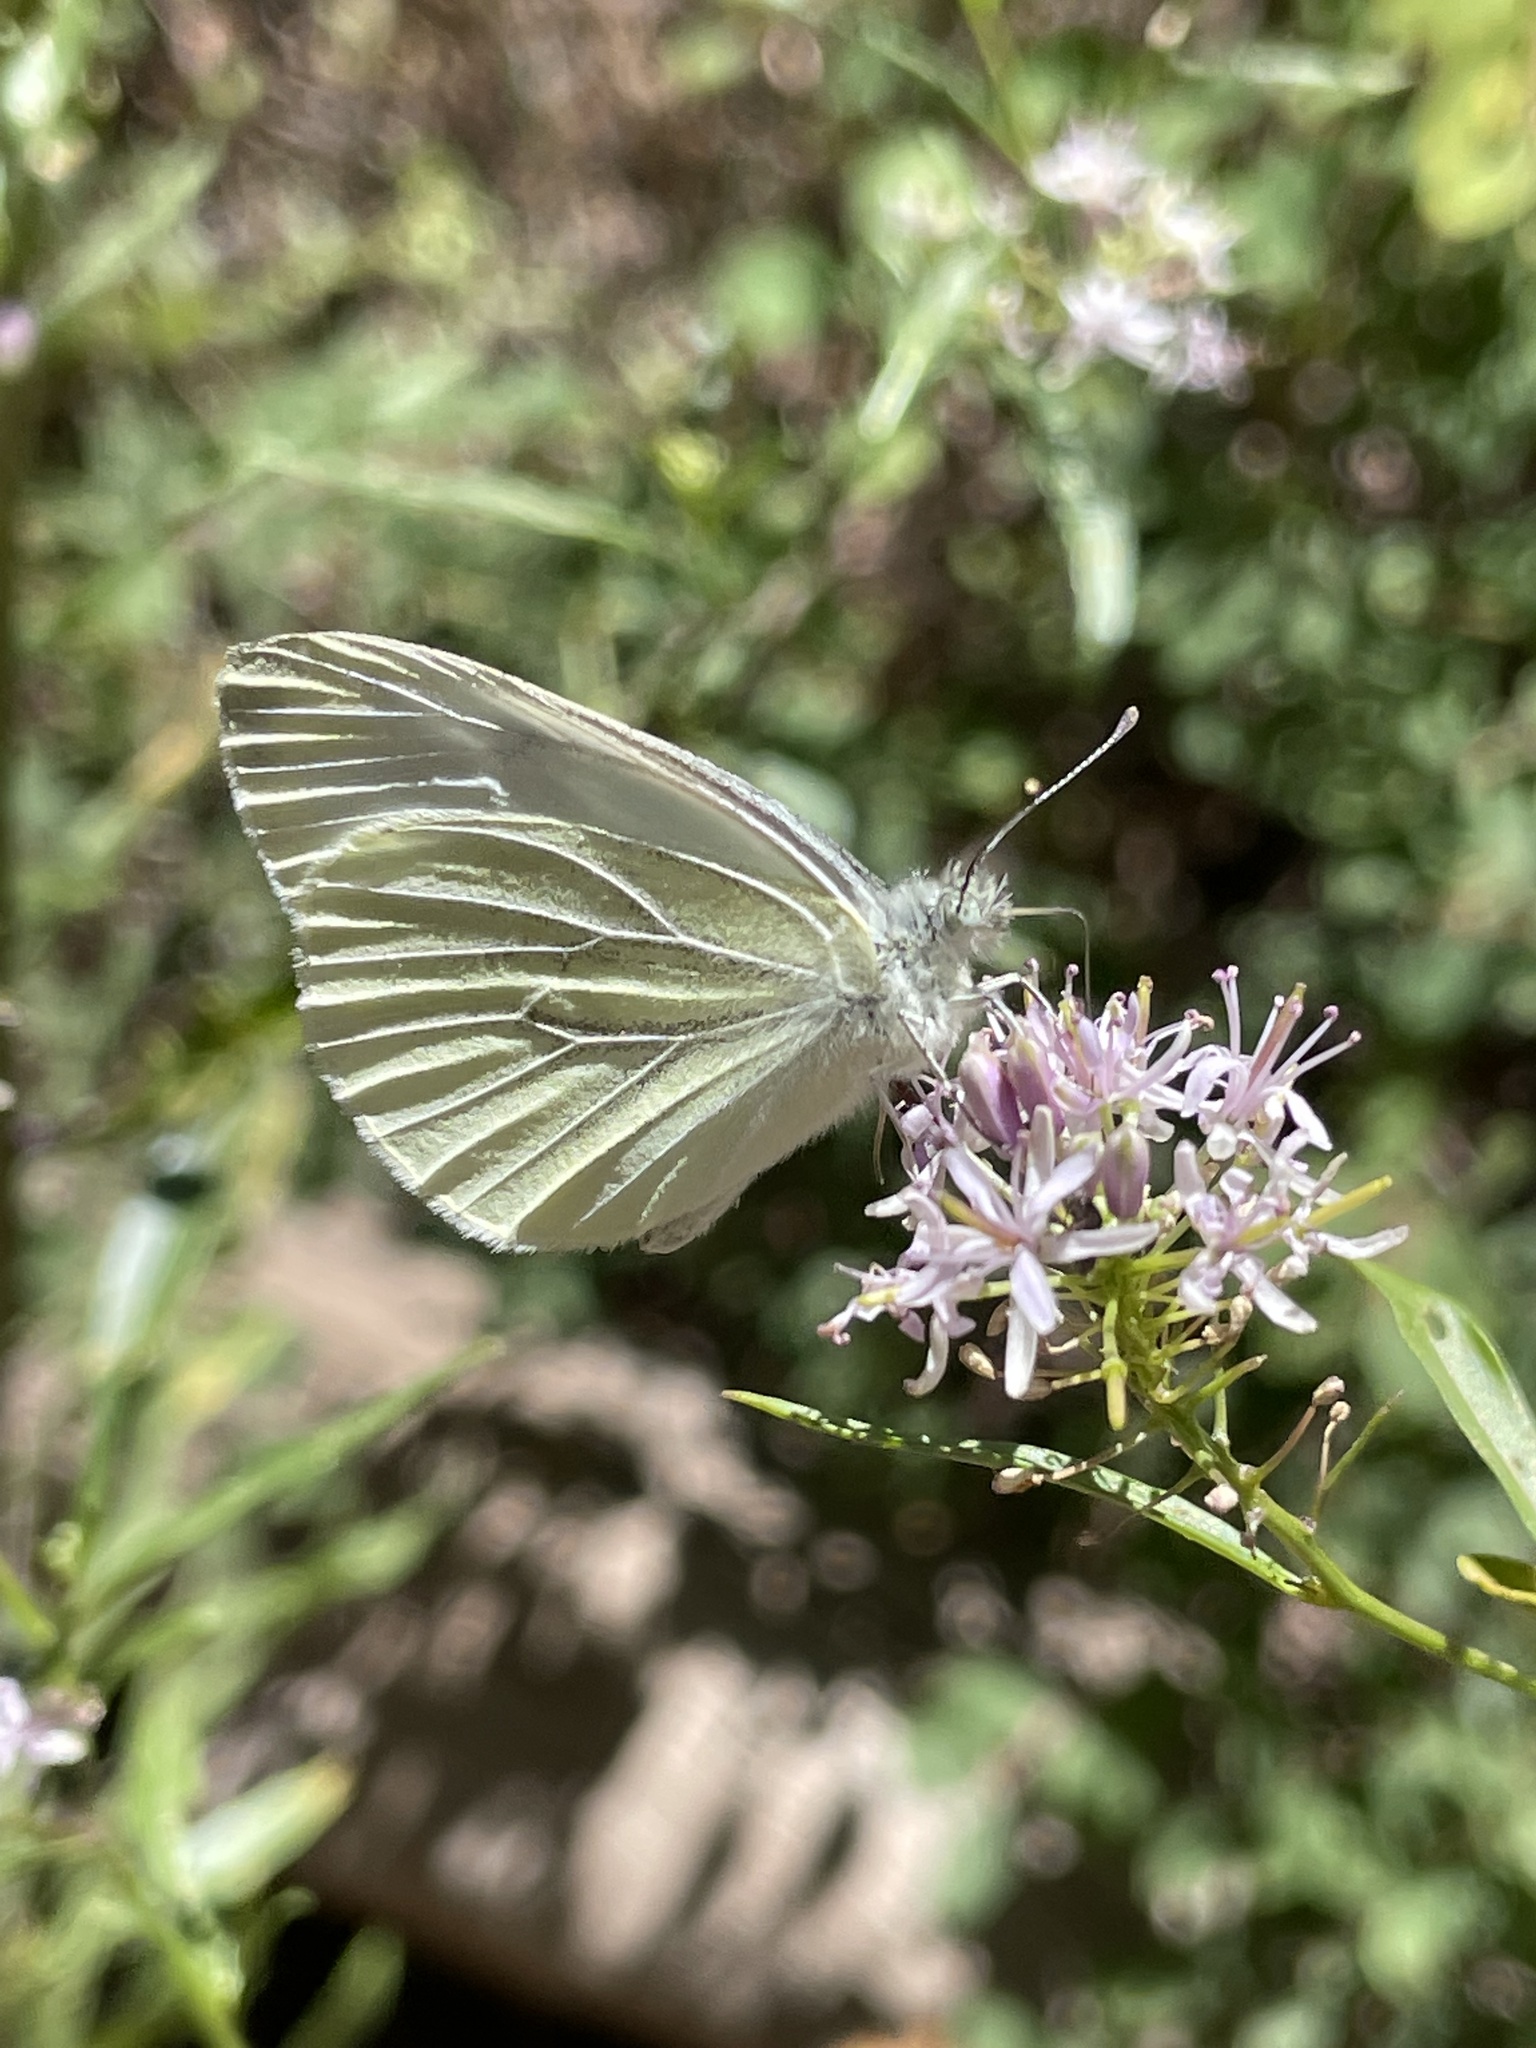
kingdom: Animalia
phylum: Arthropoda
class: Insecta
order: Lepidoptera
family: Pieridae
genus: Pieris
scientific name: Pieris marginalis
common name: Margined white
